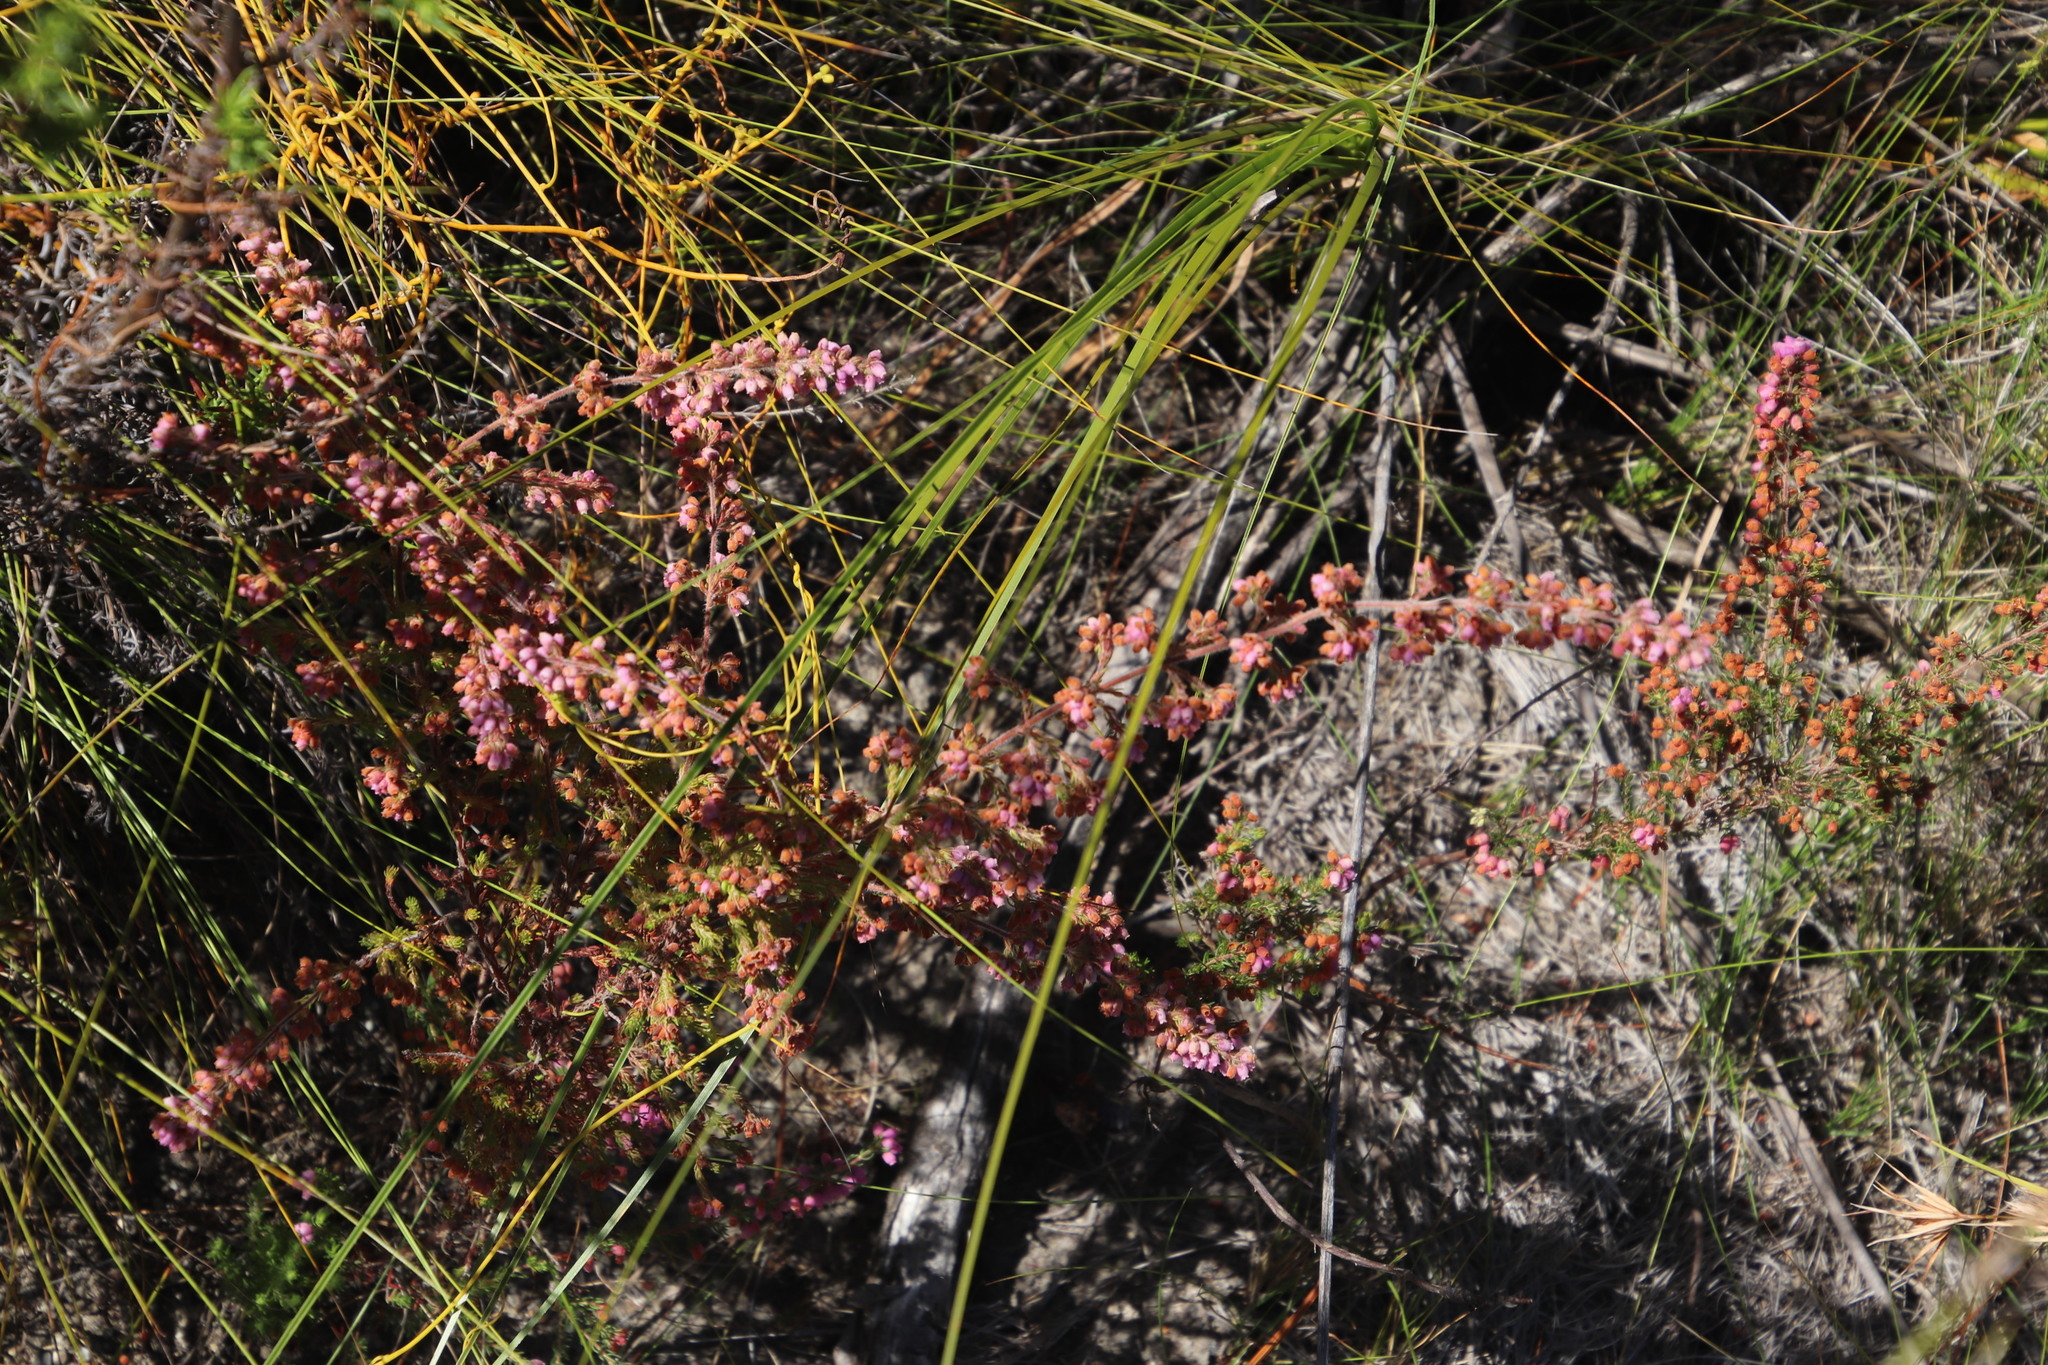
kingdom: Plantae
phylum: Tracheophyta
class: Magnoliopsida
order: Ericales
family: Ericaceae
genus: Erica
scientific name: Erica parviflora
